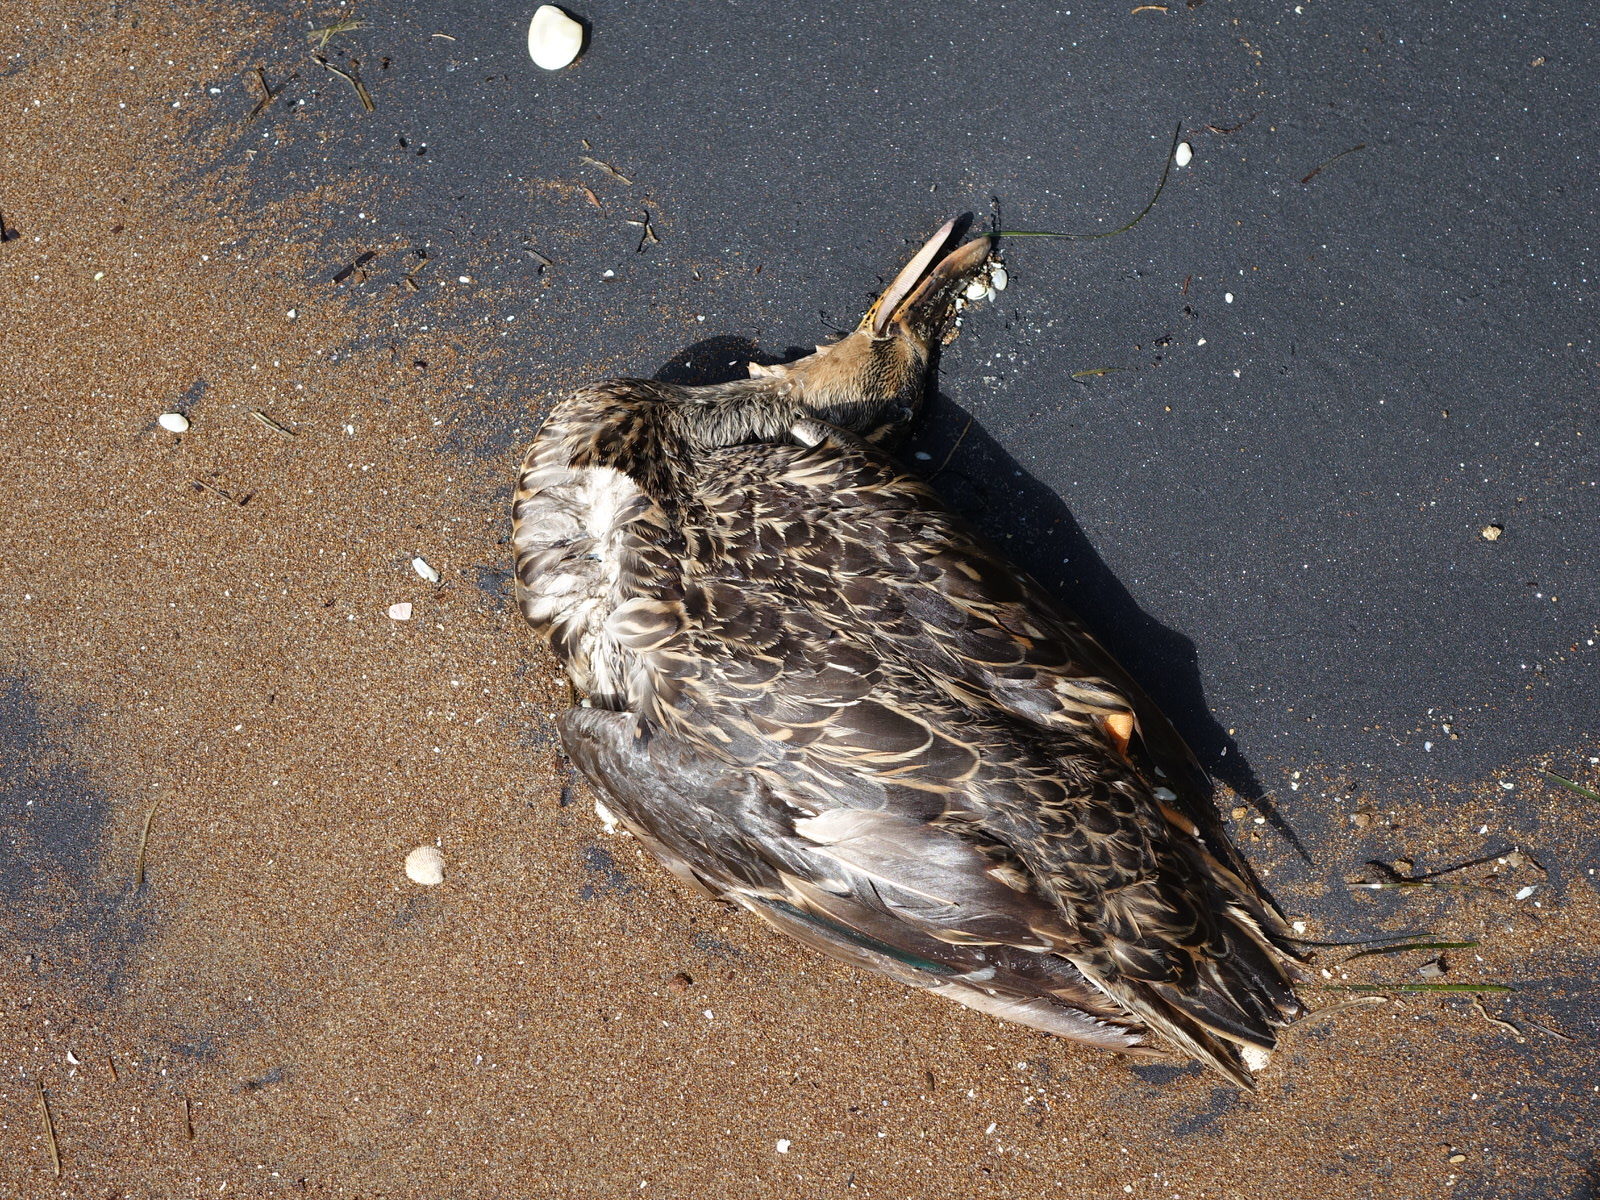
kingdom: Animalia
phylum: Chordata
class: Aves
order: Anseriformes
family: Anatidae
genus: Anas
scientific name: Anas platyrhynchos
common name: Mallard
